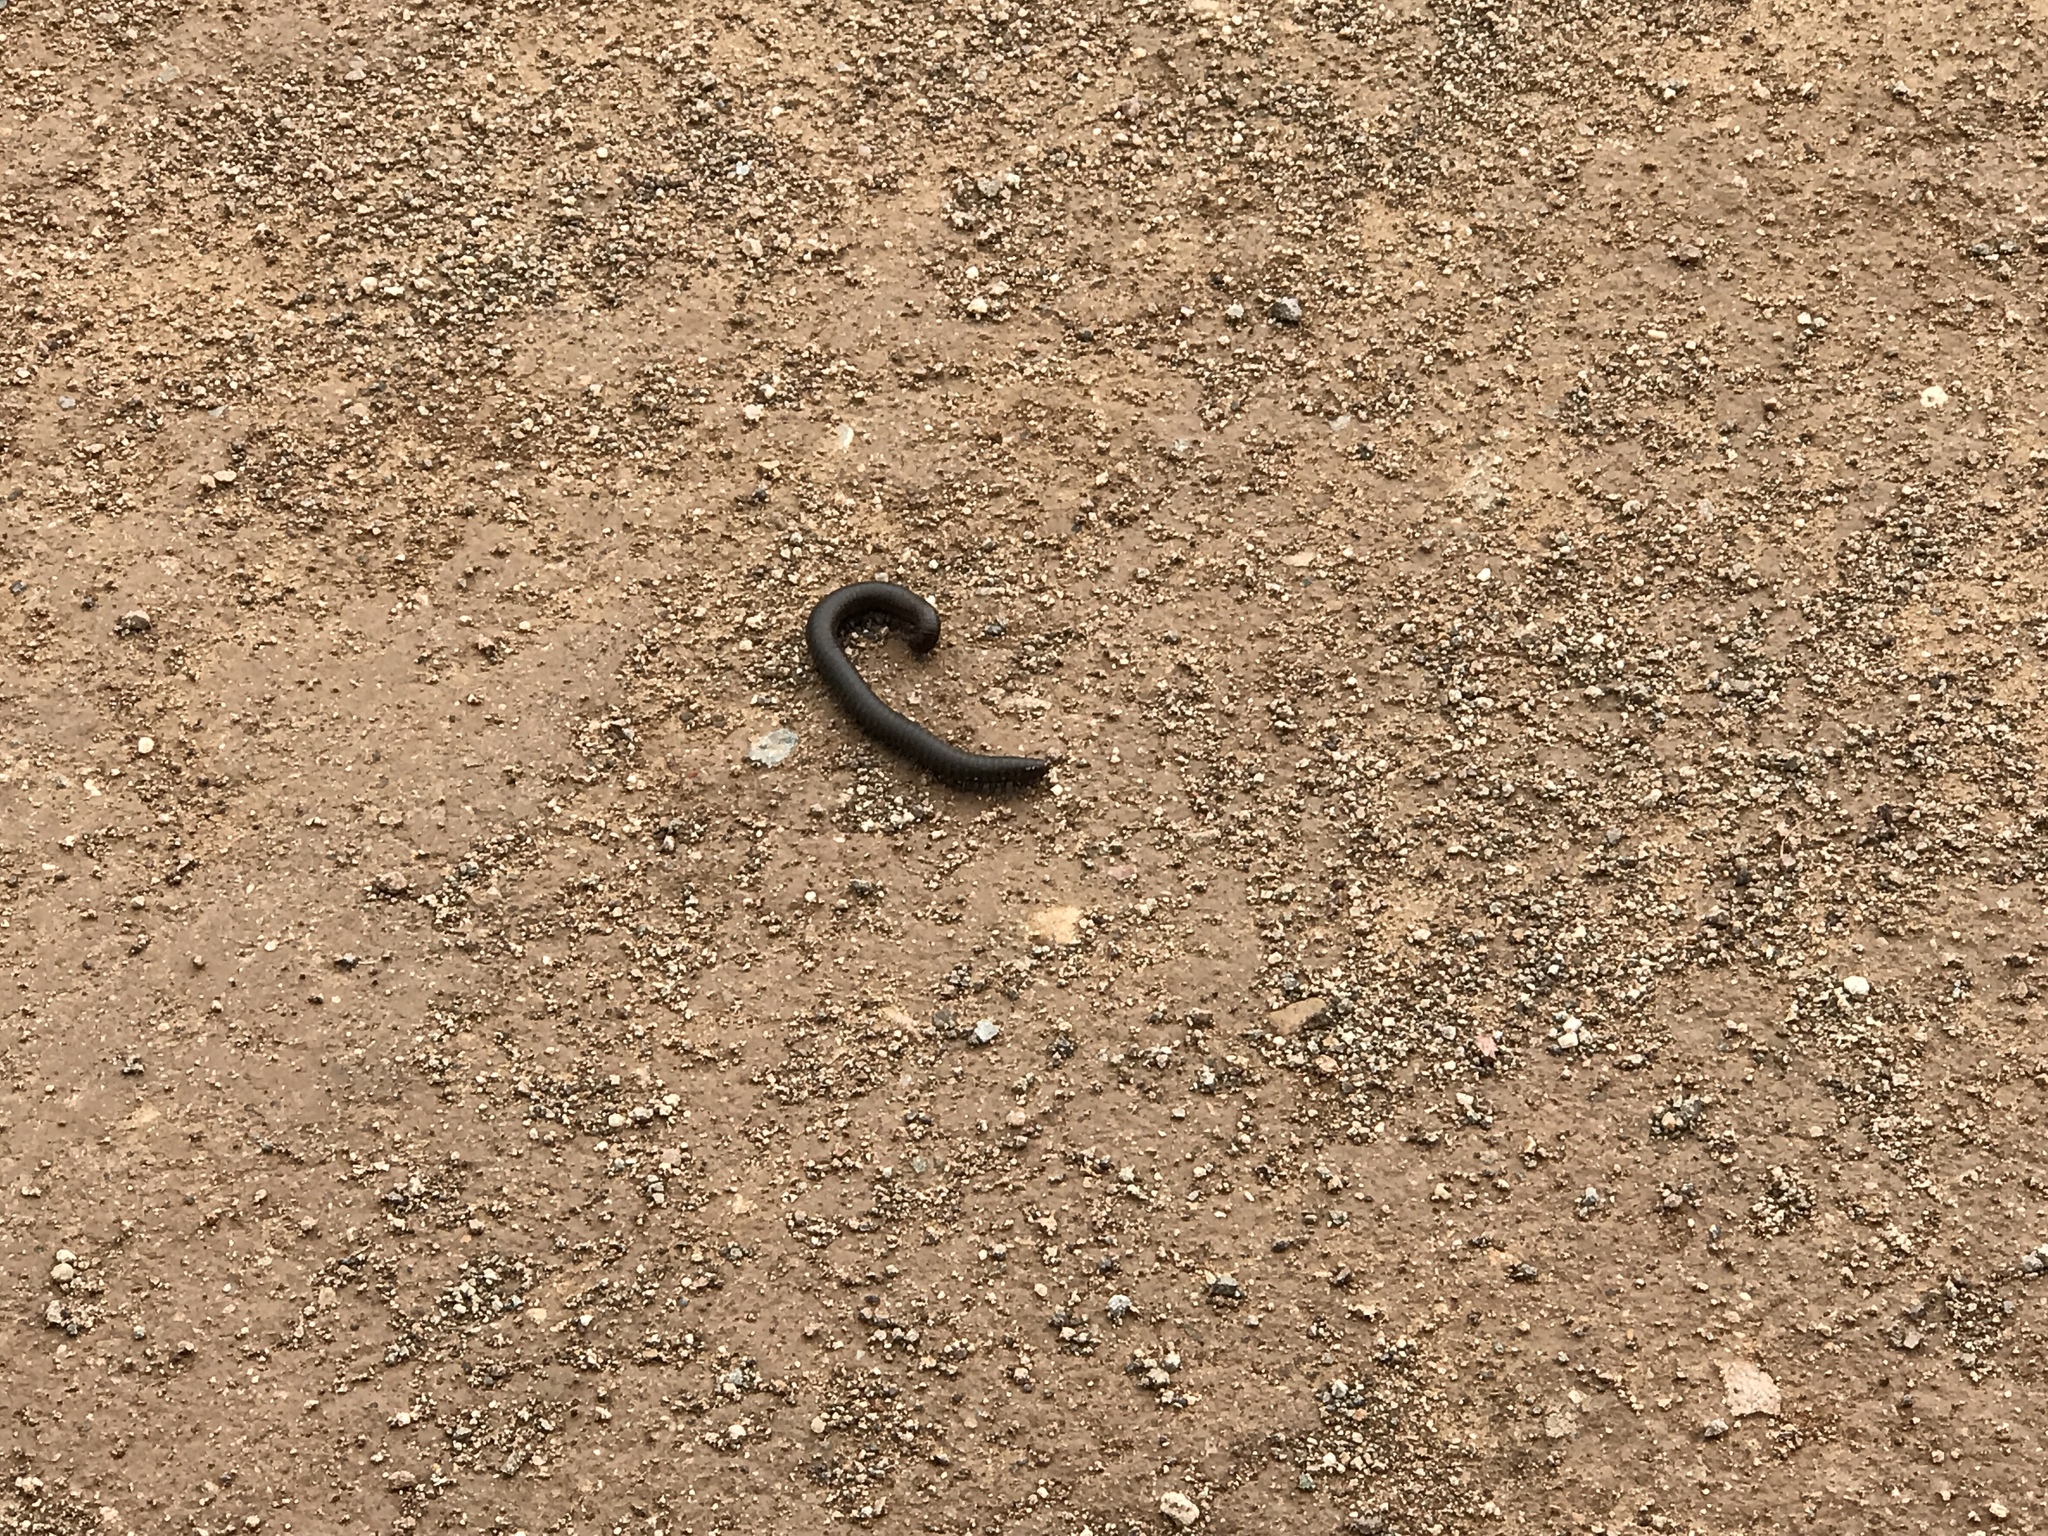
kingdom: Animalia
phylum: Arthropoda
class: Diplopoda
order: Spirostreptida
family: Spirostreptidae
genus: Orthoporus
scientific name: Orthoporus ornatus
